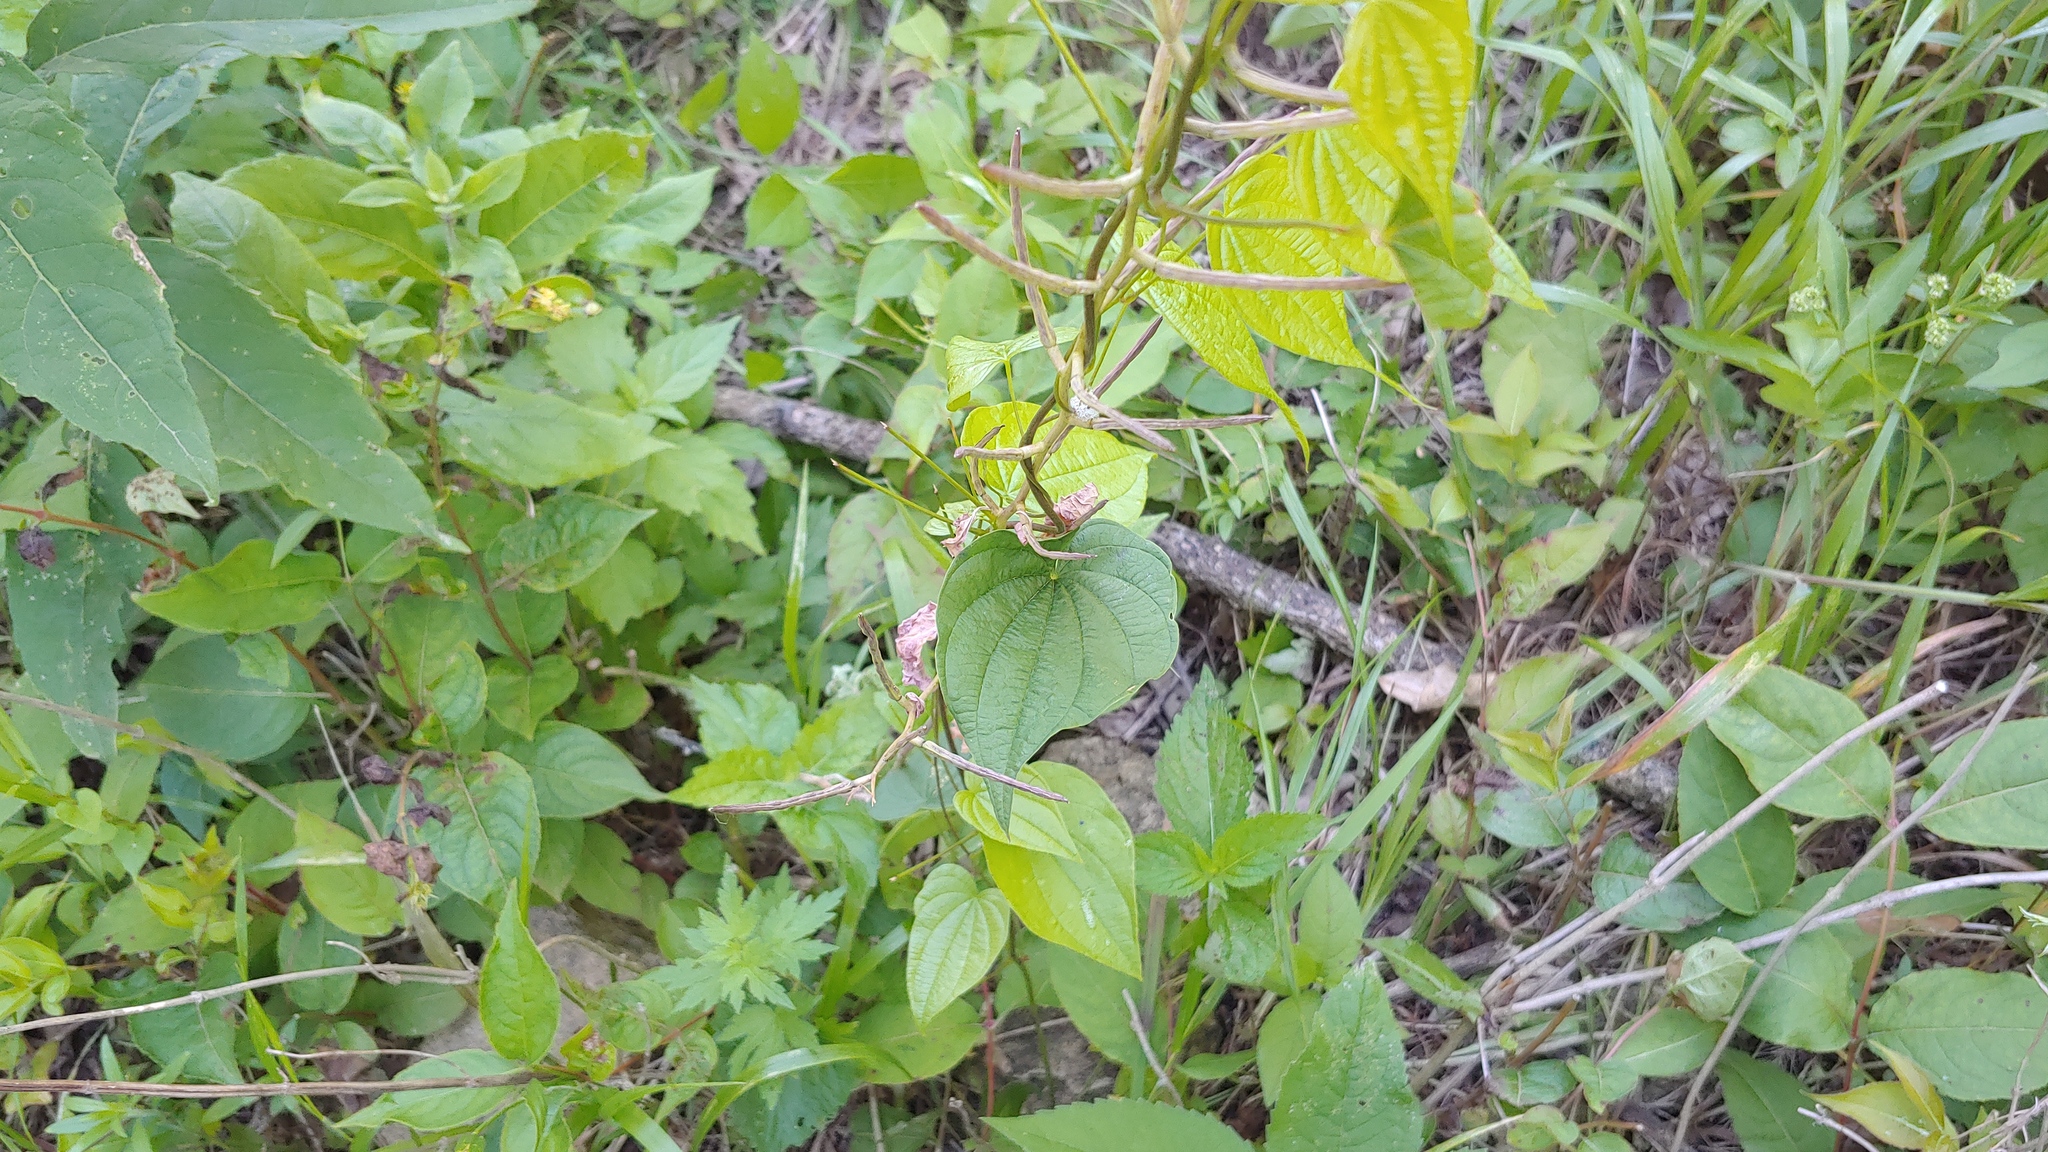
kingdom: Plantae
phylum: Tracheophyta
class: Liliopsida
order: Dioscoreales
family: Dioscoreaceae
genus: Dioscorea
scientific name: Dioscorea villosa
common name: Wild yam
